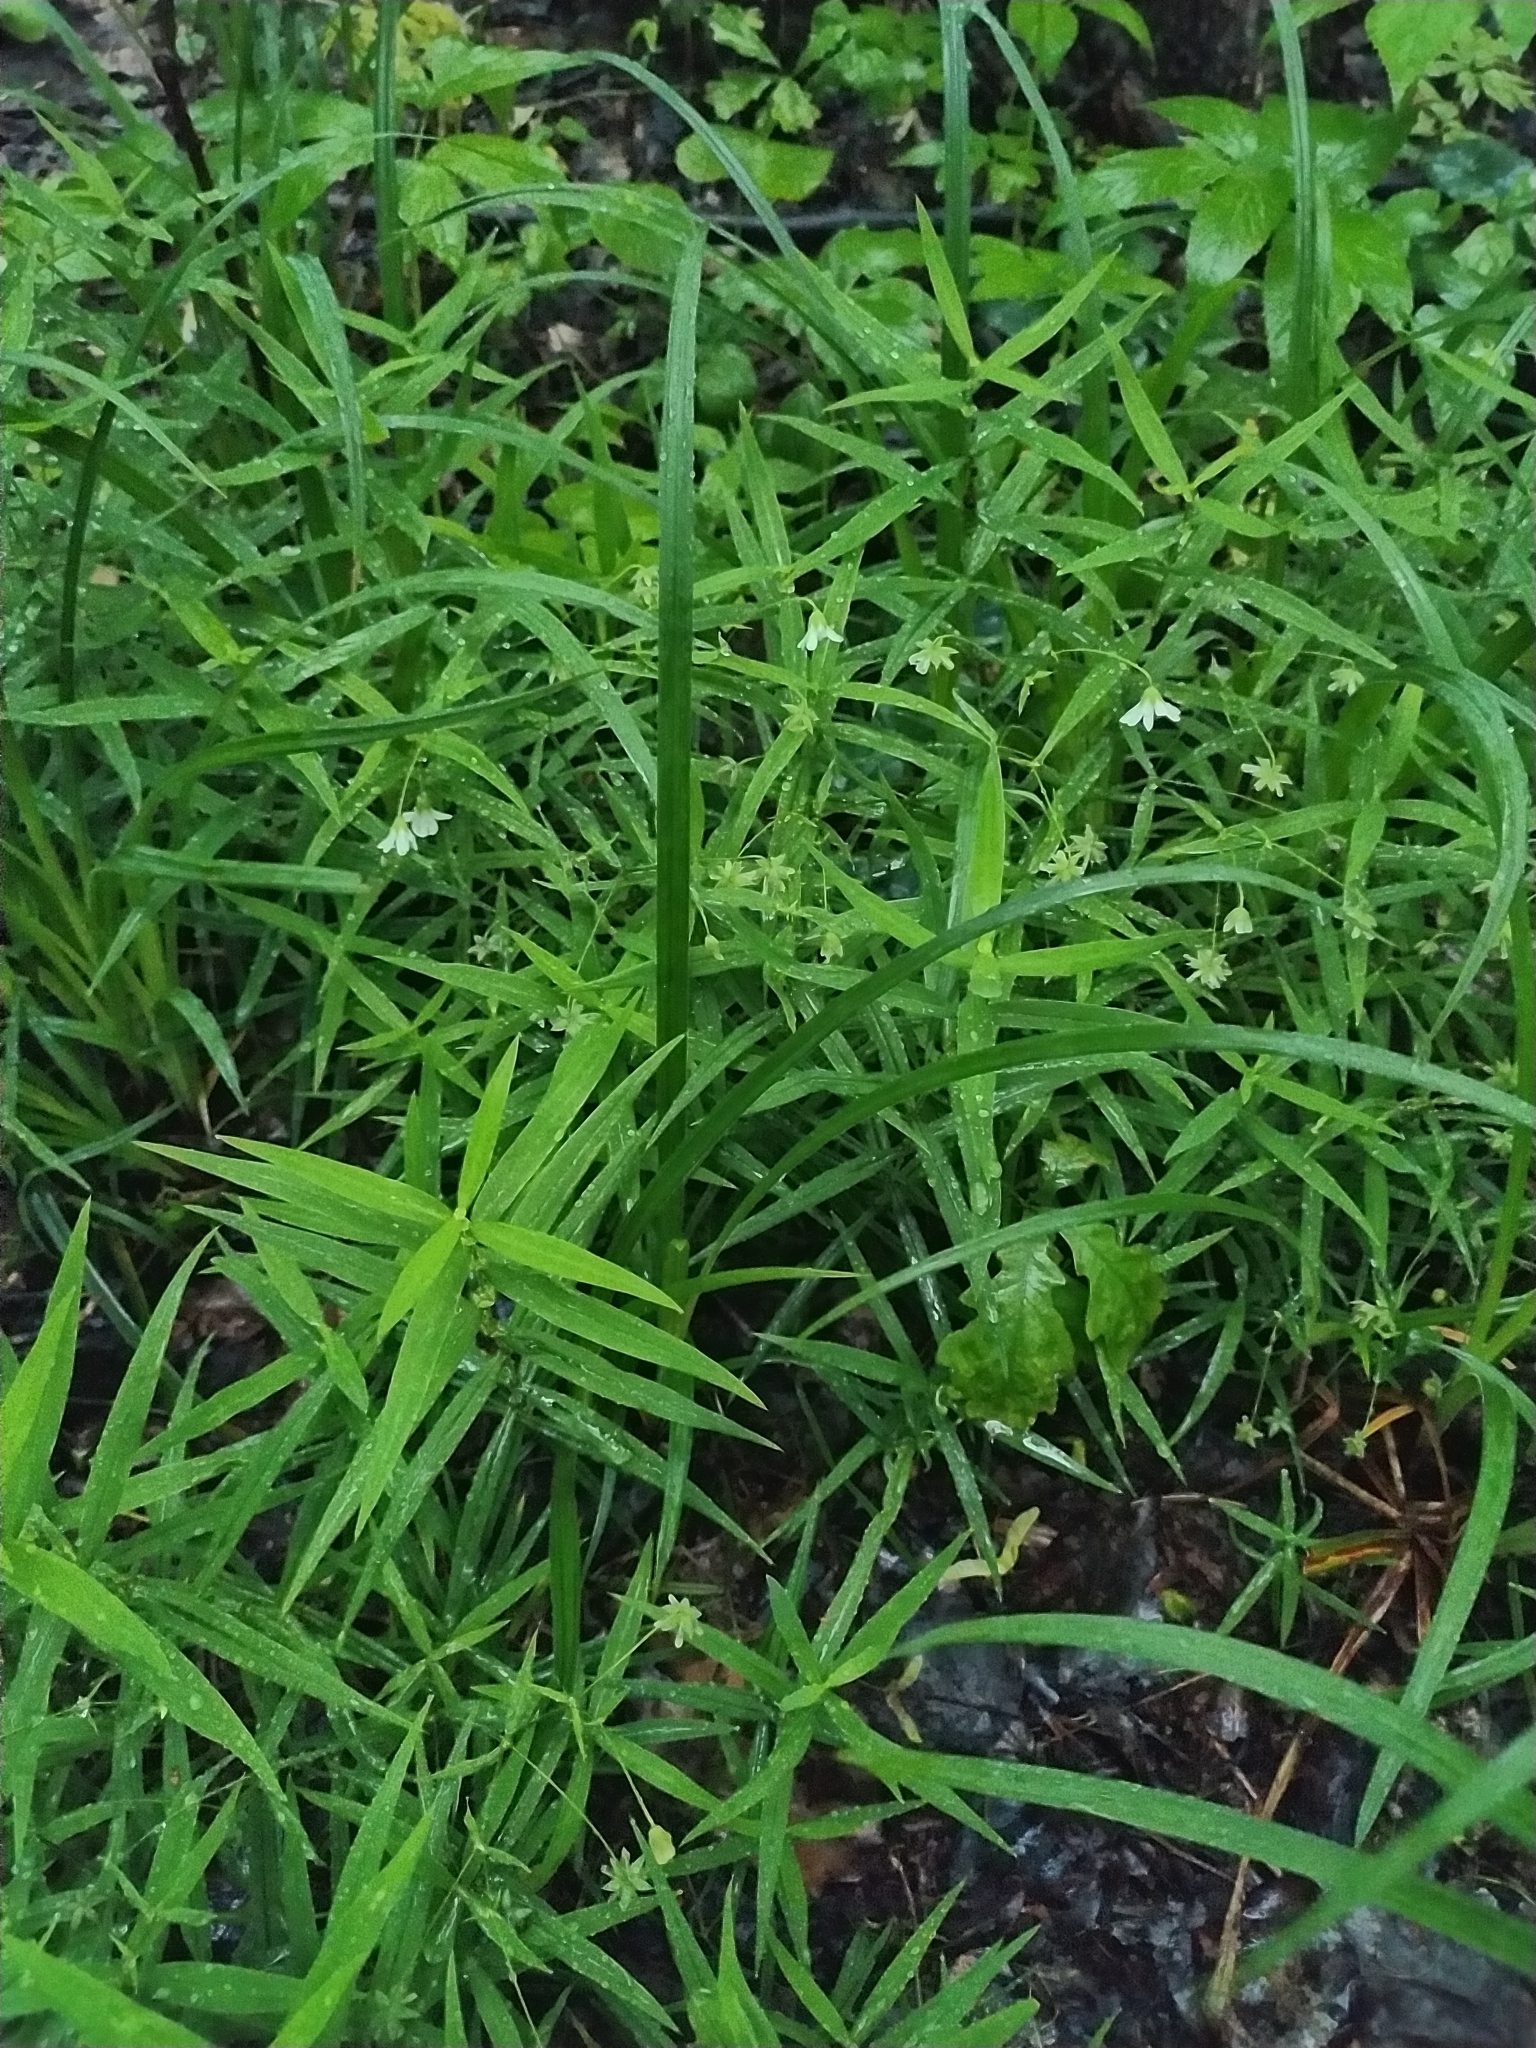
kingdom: Plantae
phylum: Tracheophyta
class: Magnoliopsida
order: Caryophyllales
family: Caryophyllaceae
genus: Rabelera
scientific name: Rabelera holostea
